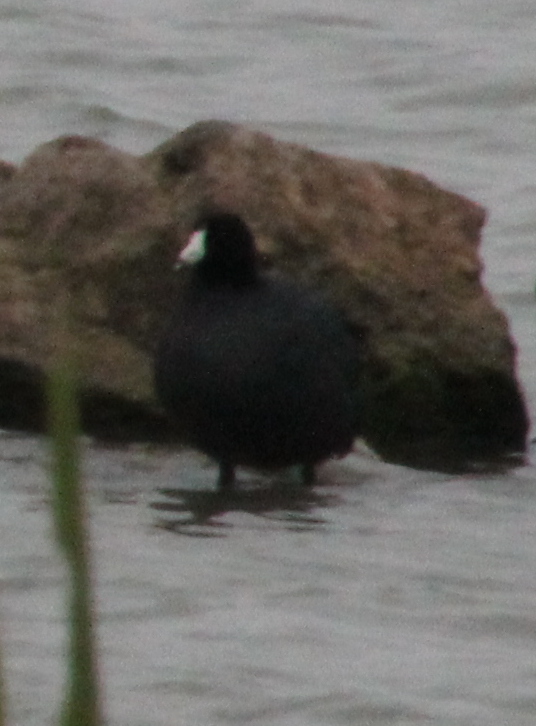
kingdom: Animalia
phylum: Chordata
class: Aves
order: Gruiformes
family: Rallidae
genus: Fulica
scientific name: Fulica americana
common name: American coot
